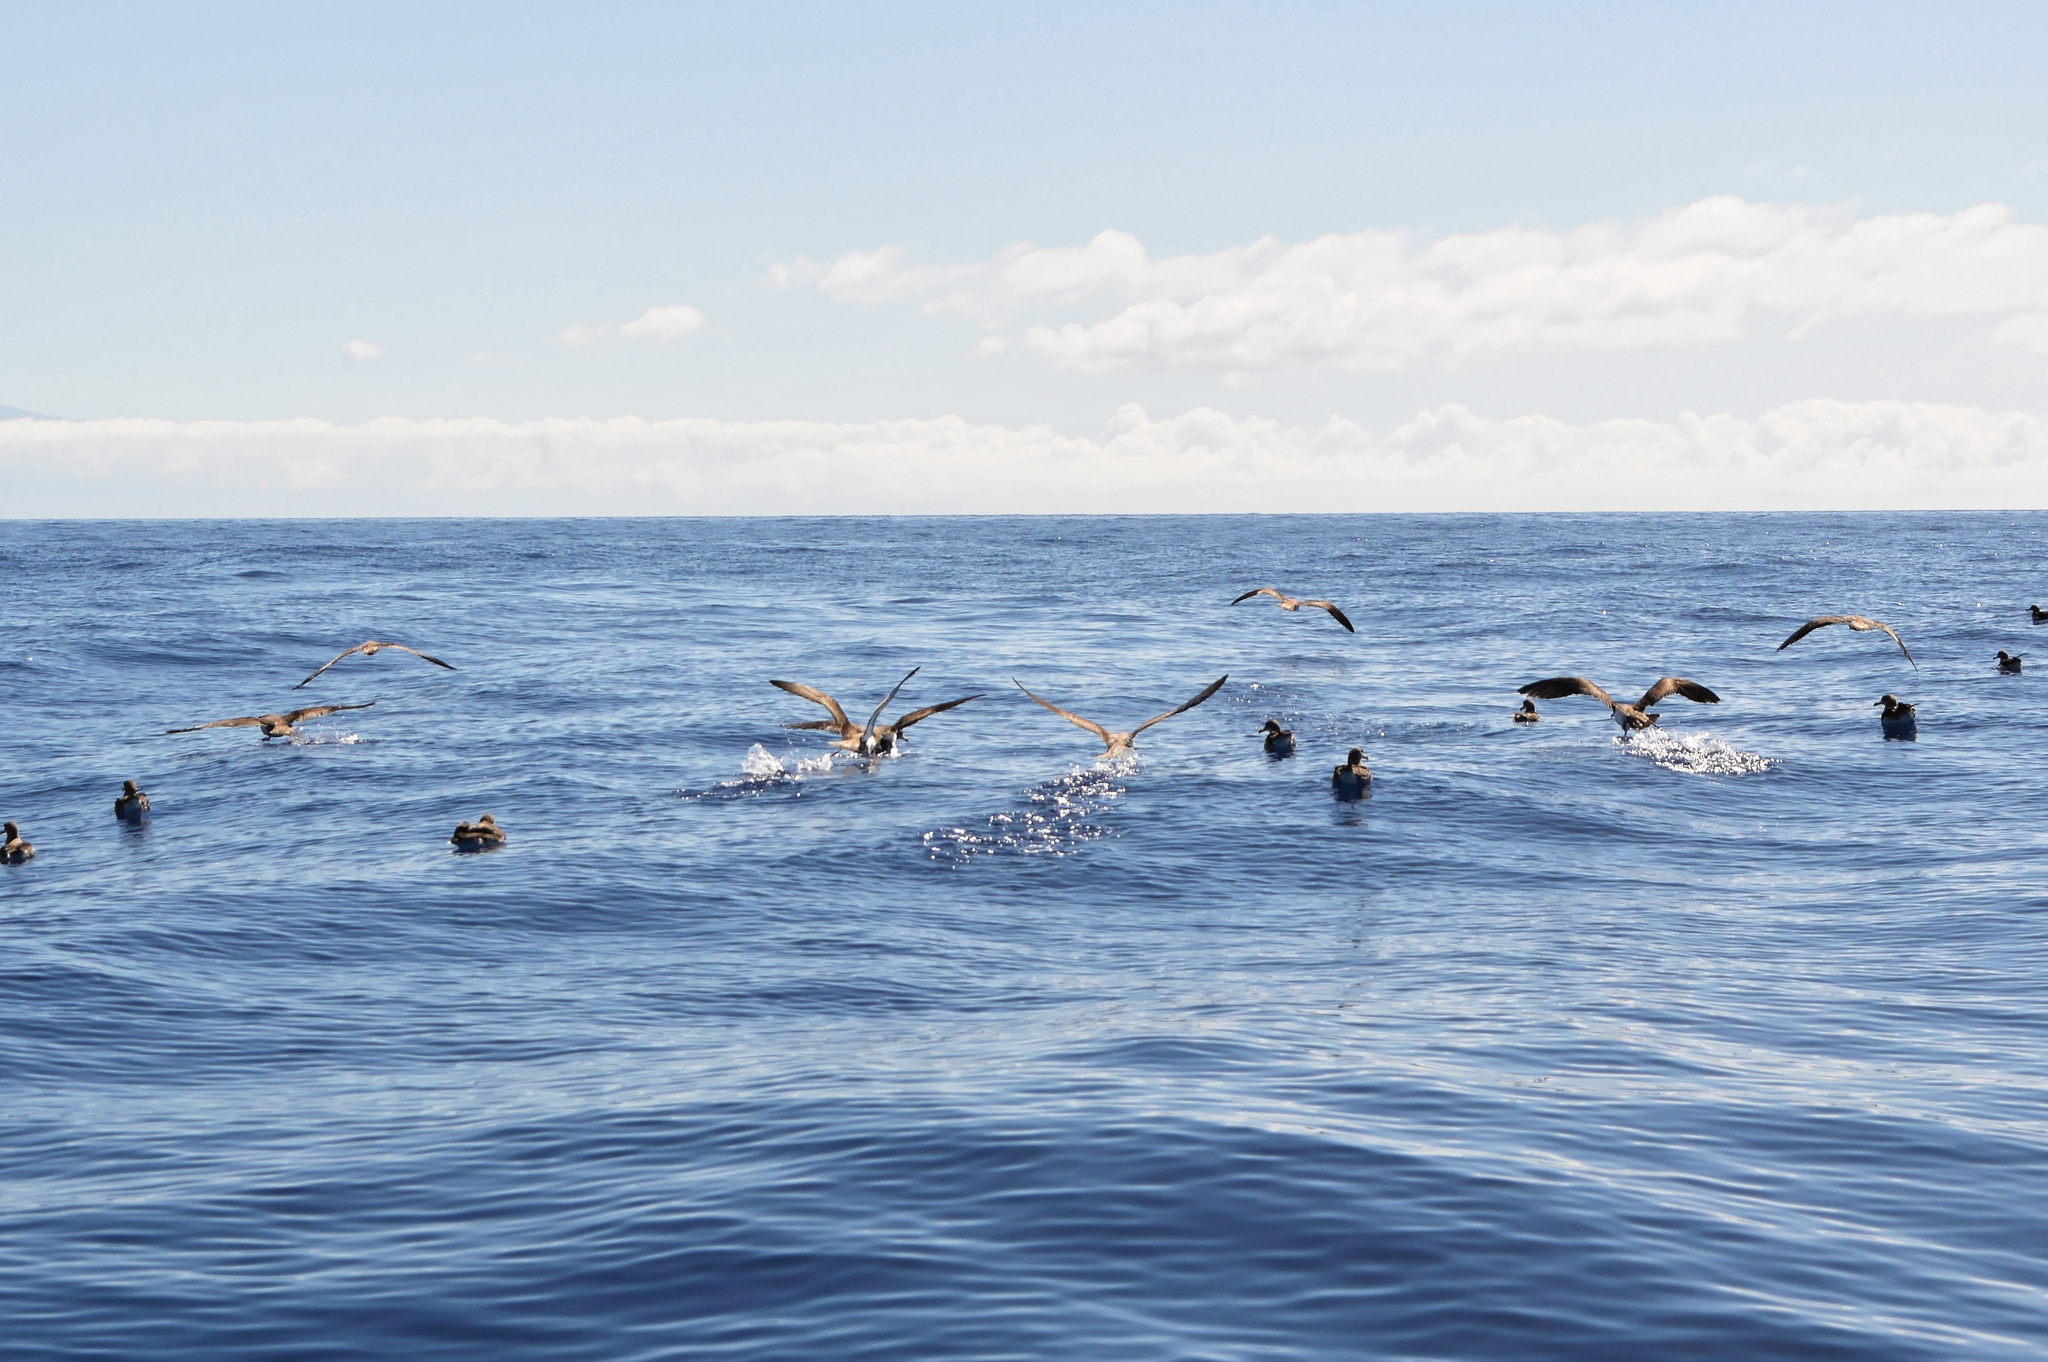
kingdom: Animalia
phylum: Chordata
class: Aves
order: Procellariiformes
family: Procellariidae
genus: Calonectris
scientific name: Calonectris diomedea
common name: Cory's shearwater
